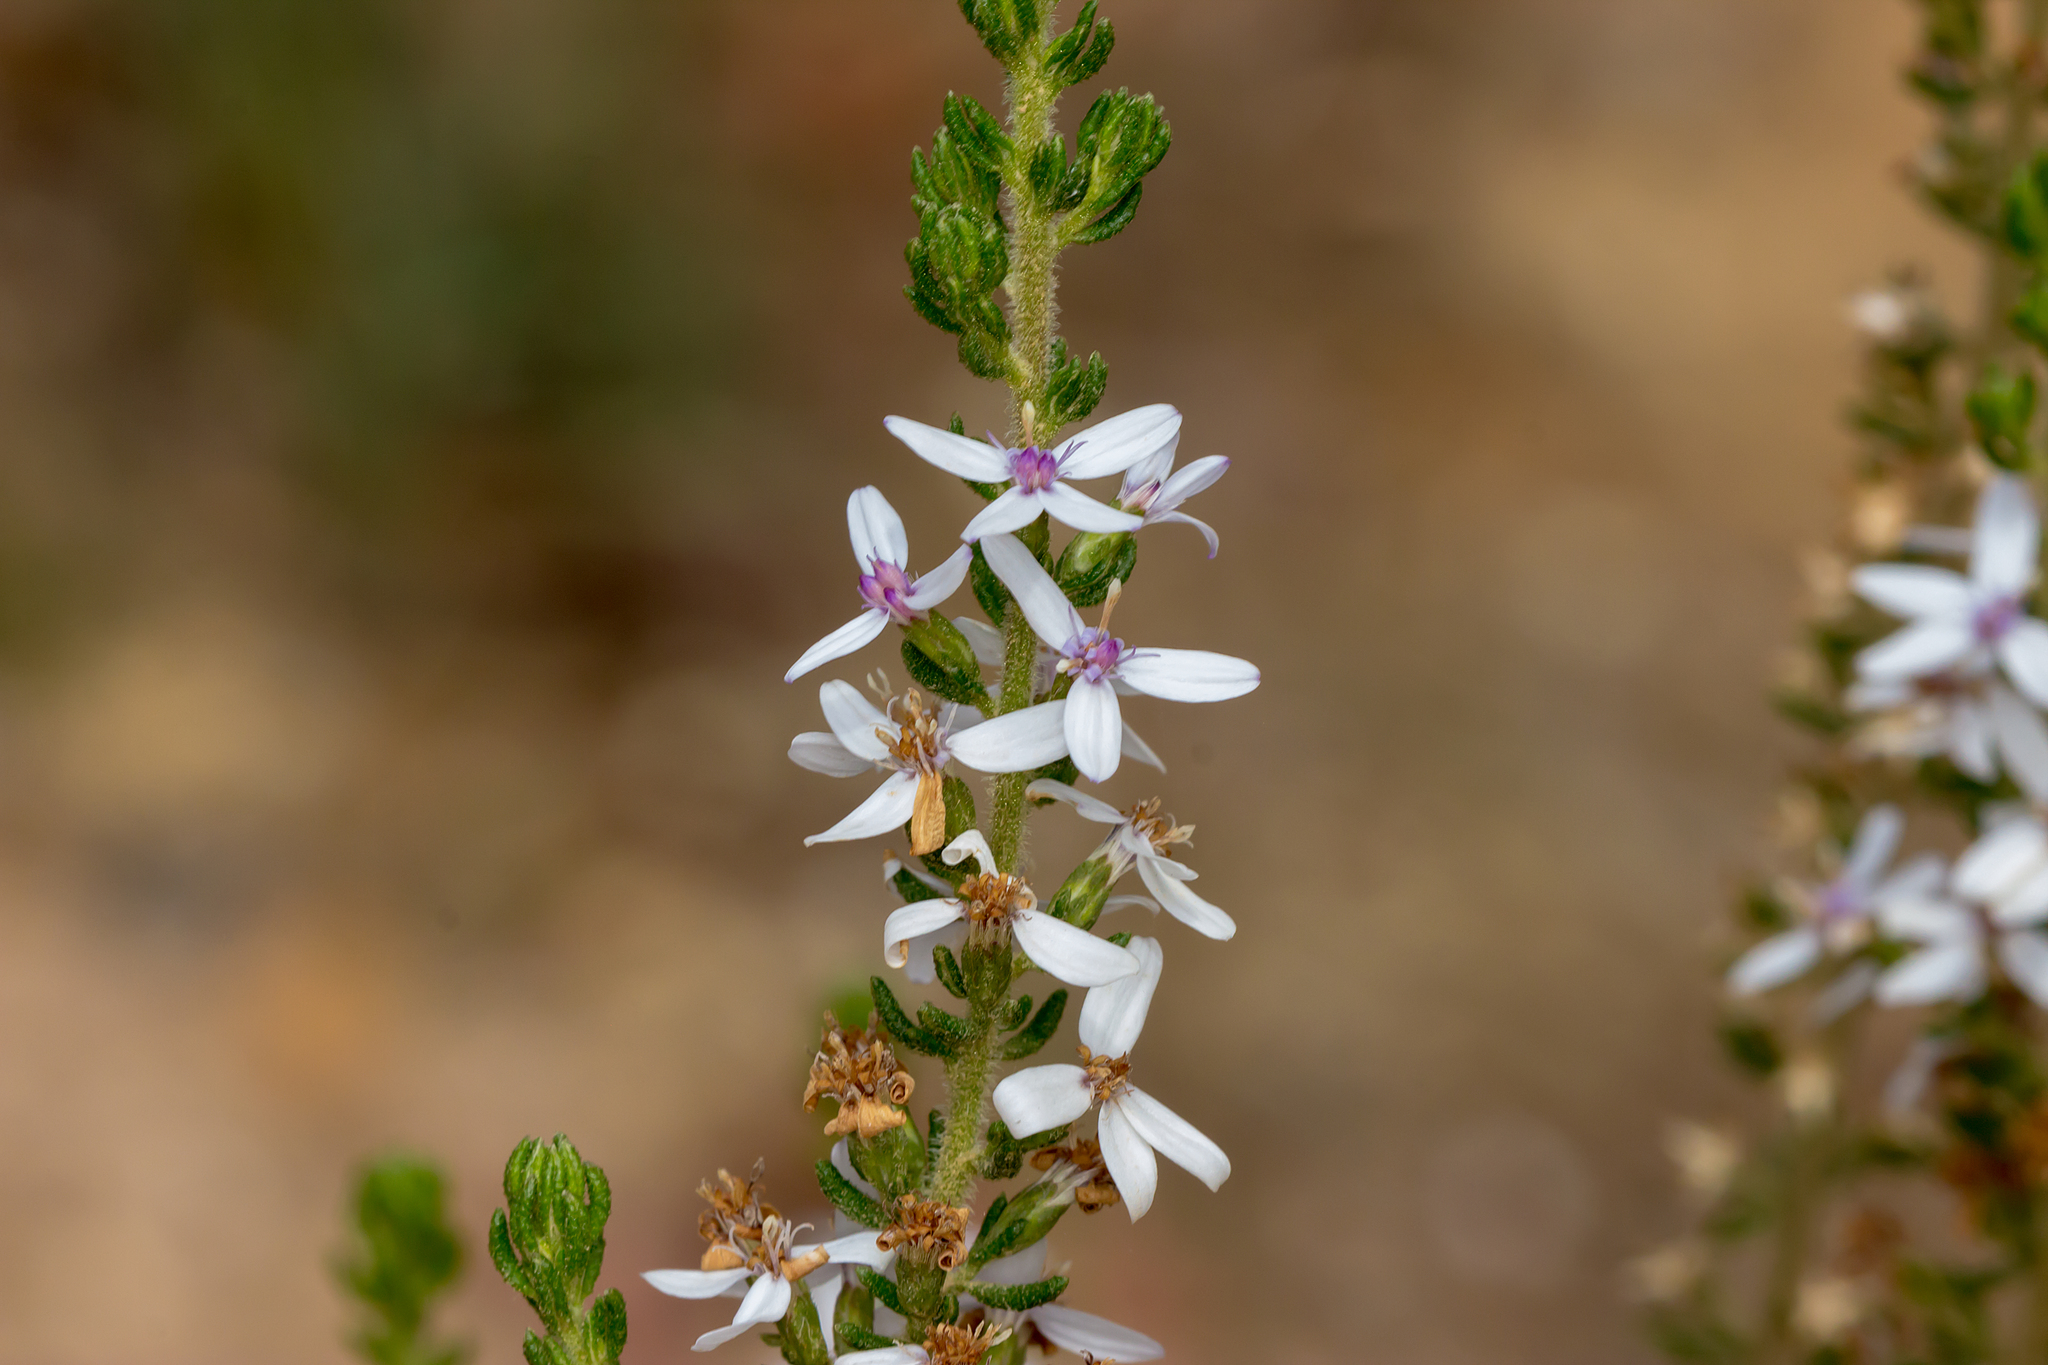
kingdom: Plantae
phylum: Tracheophyta
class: Magnoliopsida
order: Asterales
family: Asteraceae
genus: Olearia
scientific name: Olearia ramulosa
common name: Twiggy daisybush
